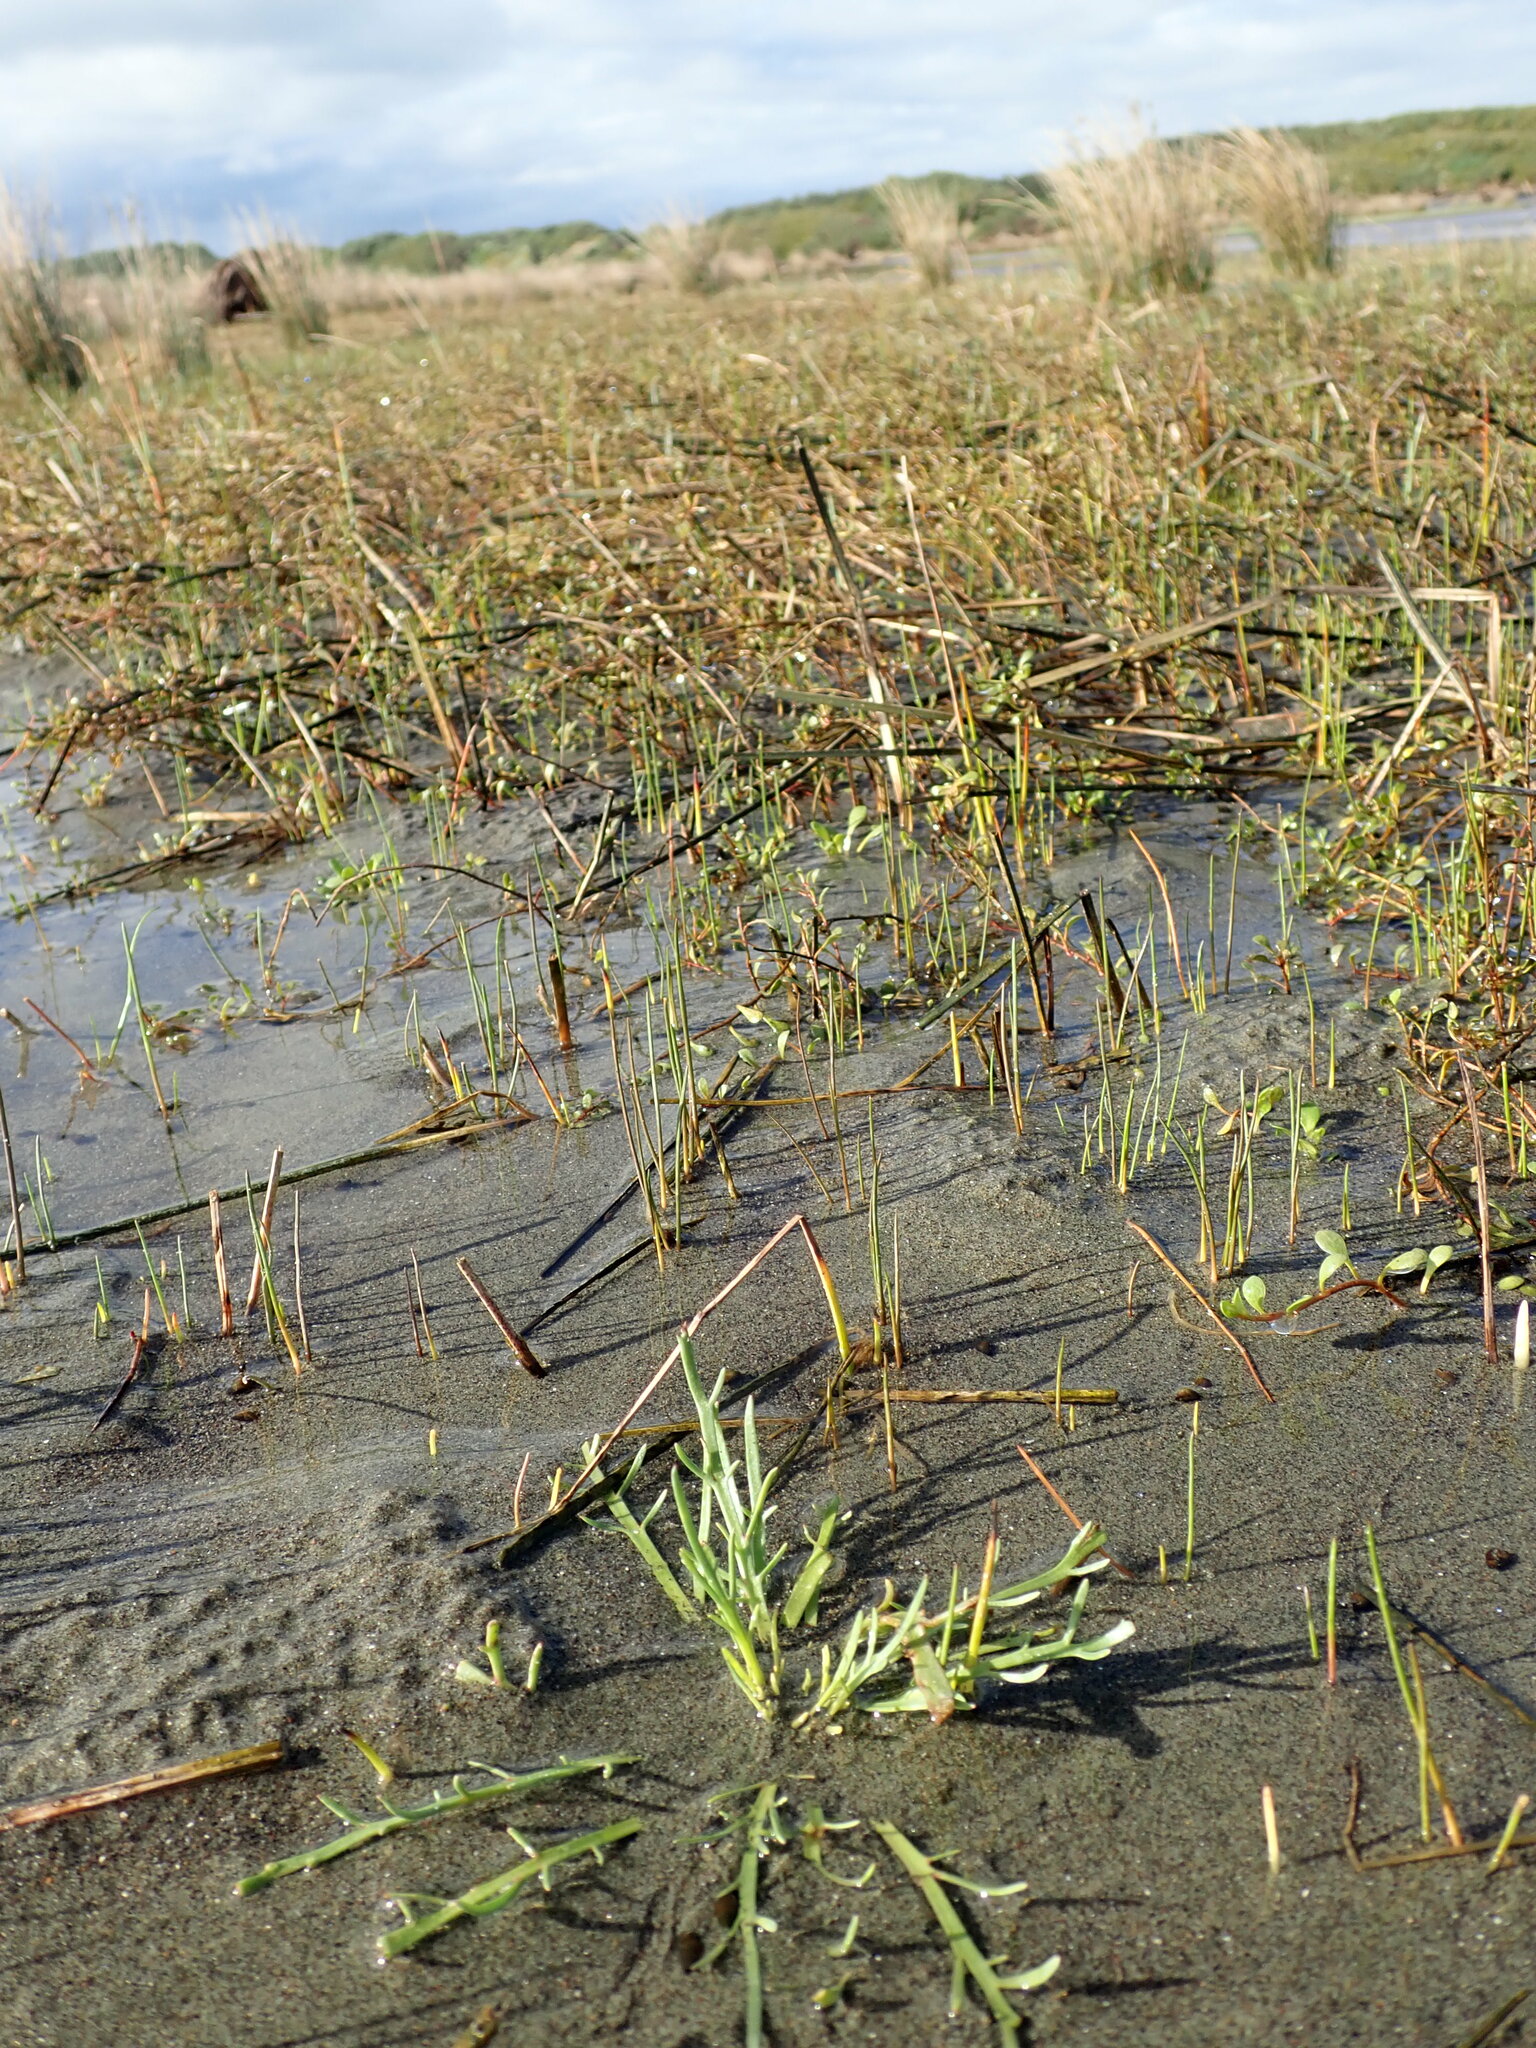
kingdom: Plantae
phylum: Tracheophyta
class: Magnoliopsida
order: Lamiales
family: Plantaginaceae
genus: Plantago
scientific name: Plantago coronopus
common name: Buck's-horn plantain
